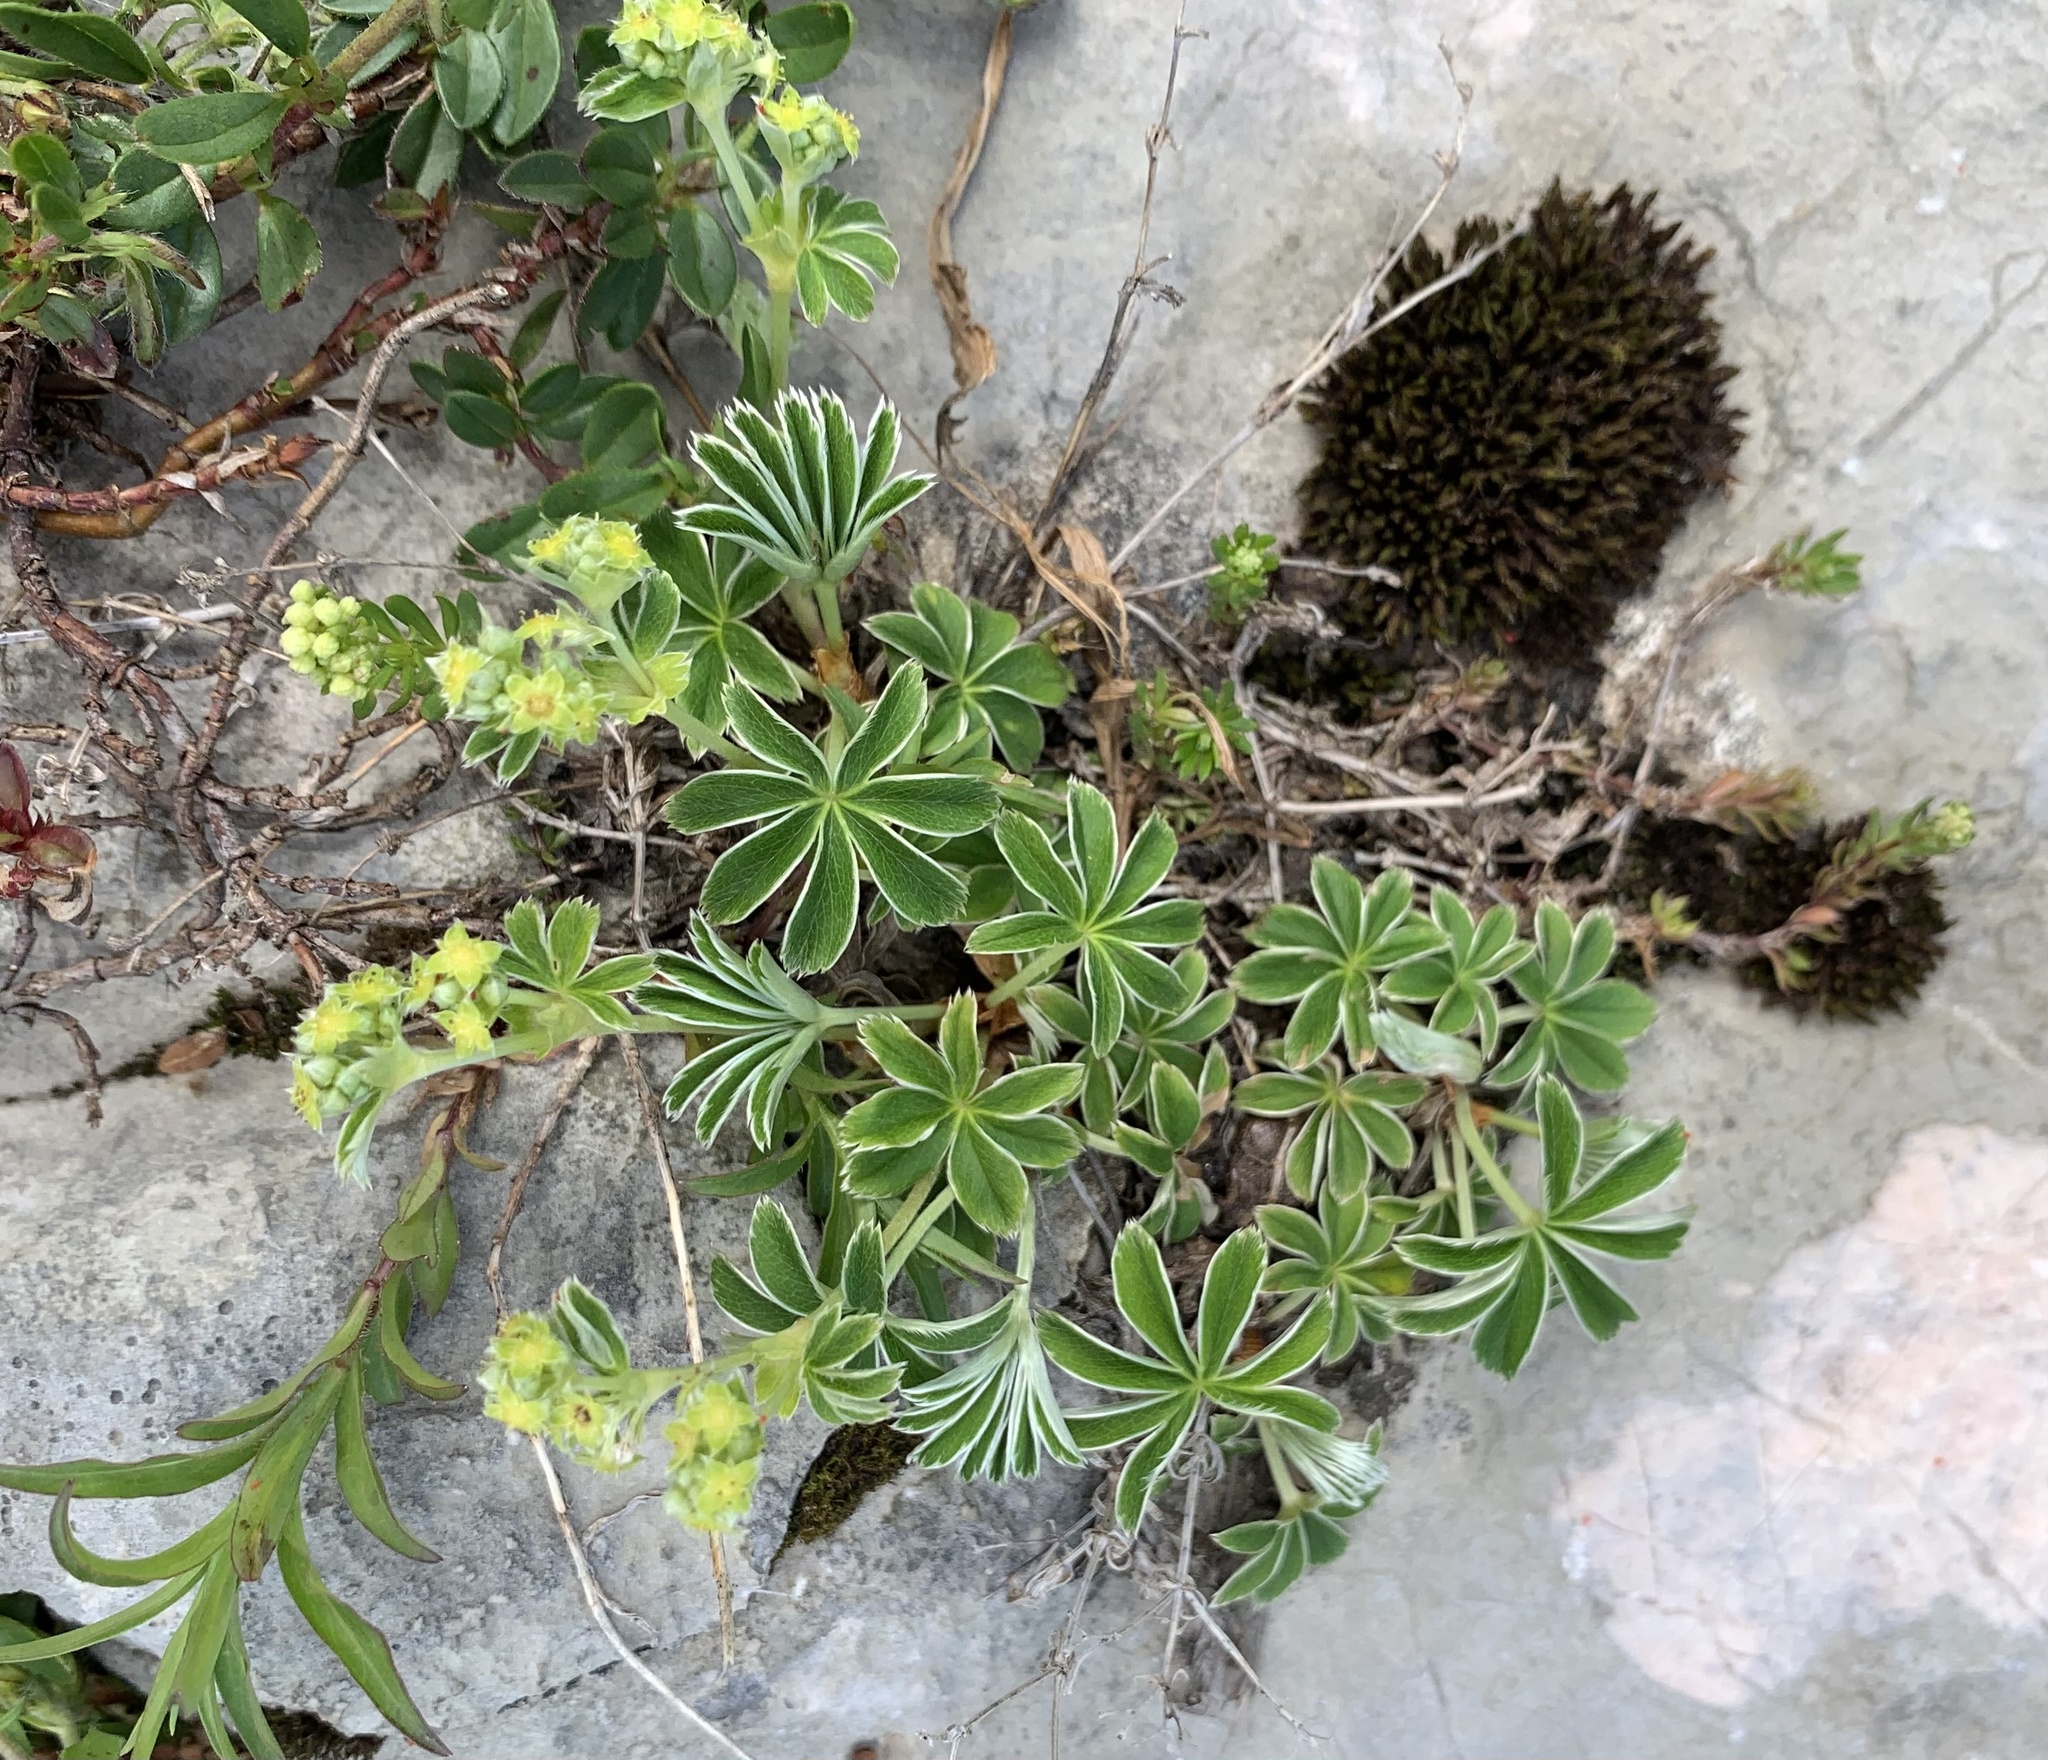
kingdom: Plantae
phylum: Tracheophyta
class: Magnoliopsida
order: Rosales
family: Rosaceae
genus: Alchemilla
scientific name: Alchemilla alpina
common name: Alpine lady's-mantle
